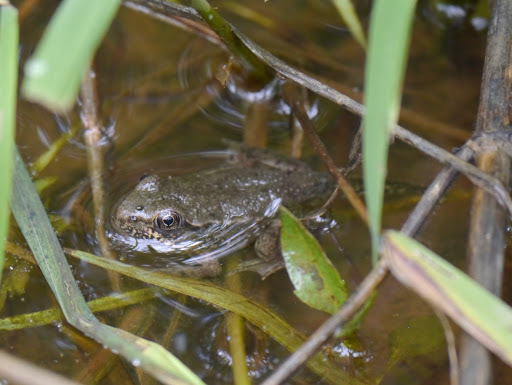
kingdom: Animalia
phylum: Chordata
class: Amphibia
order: Anura
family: Ranidae
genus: Lithobates
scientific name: Lithobates clamitans
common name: Green frog
